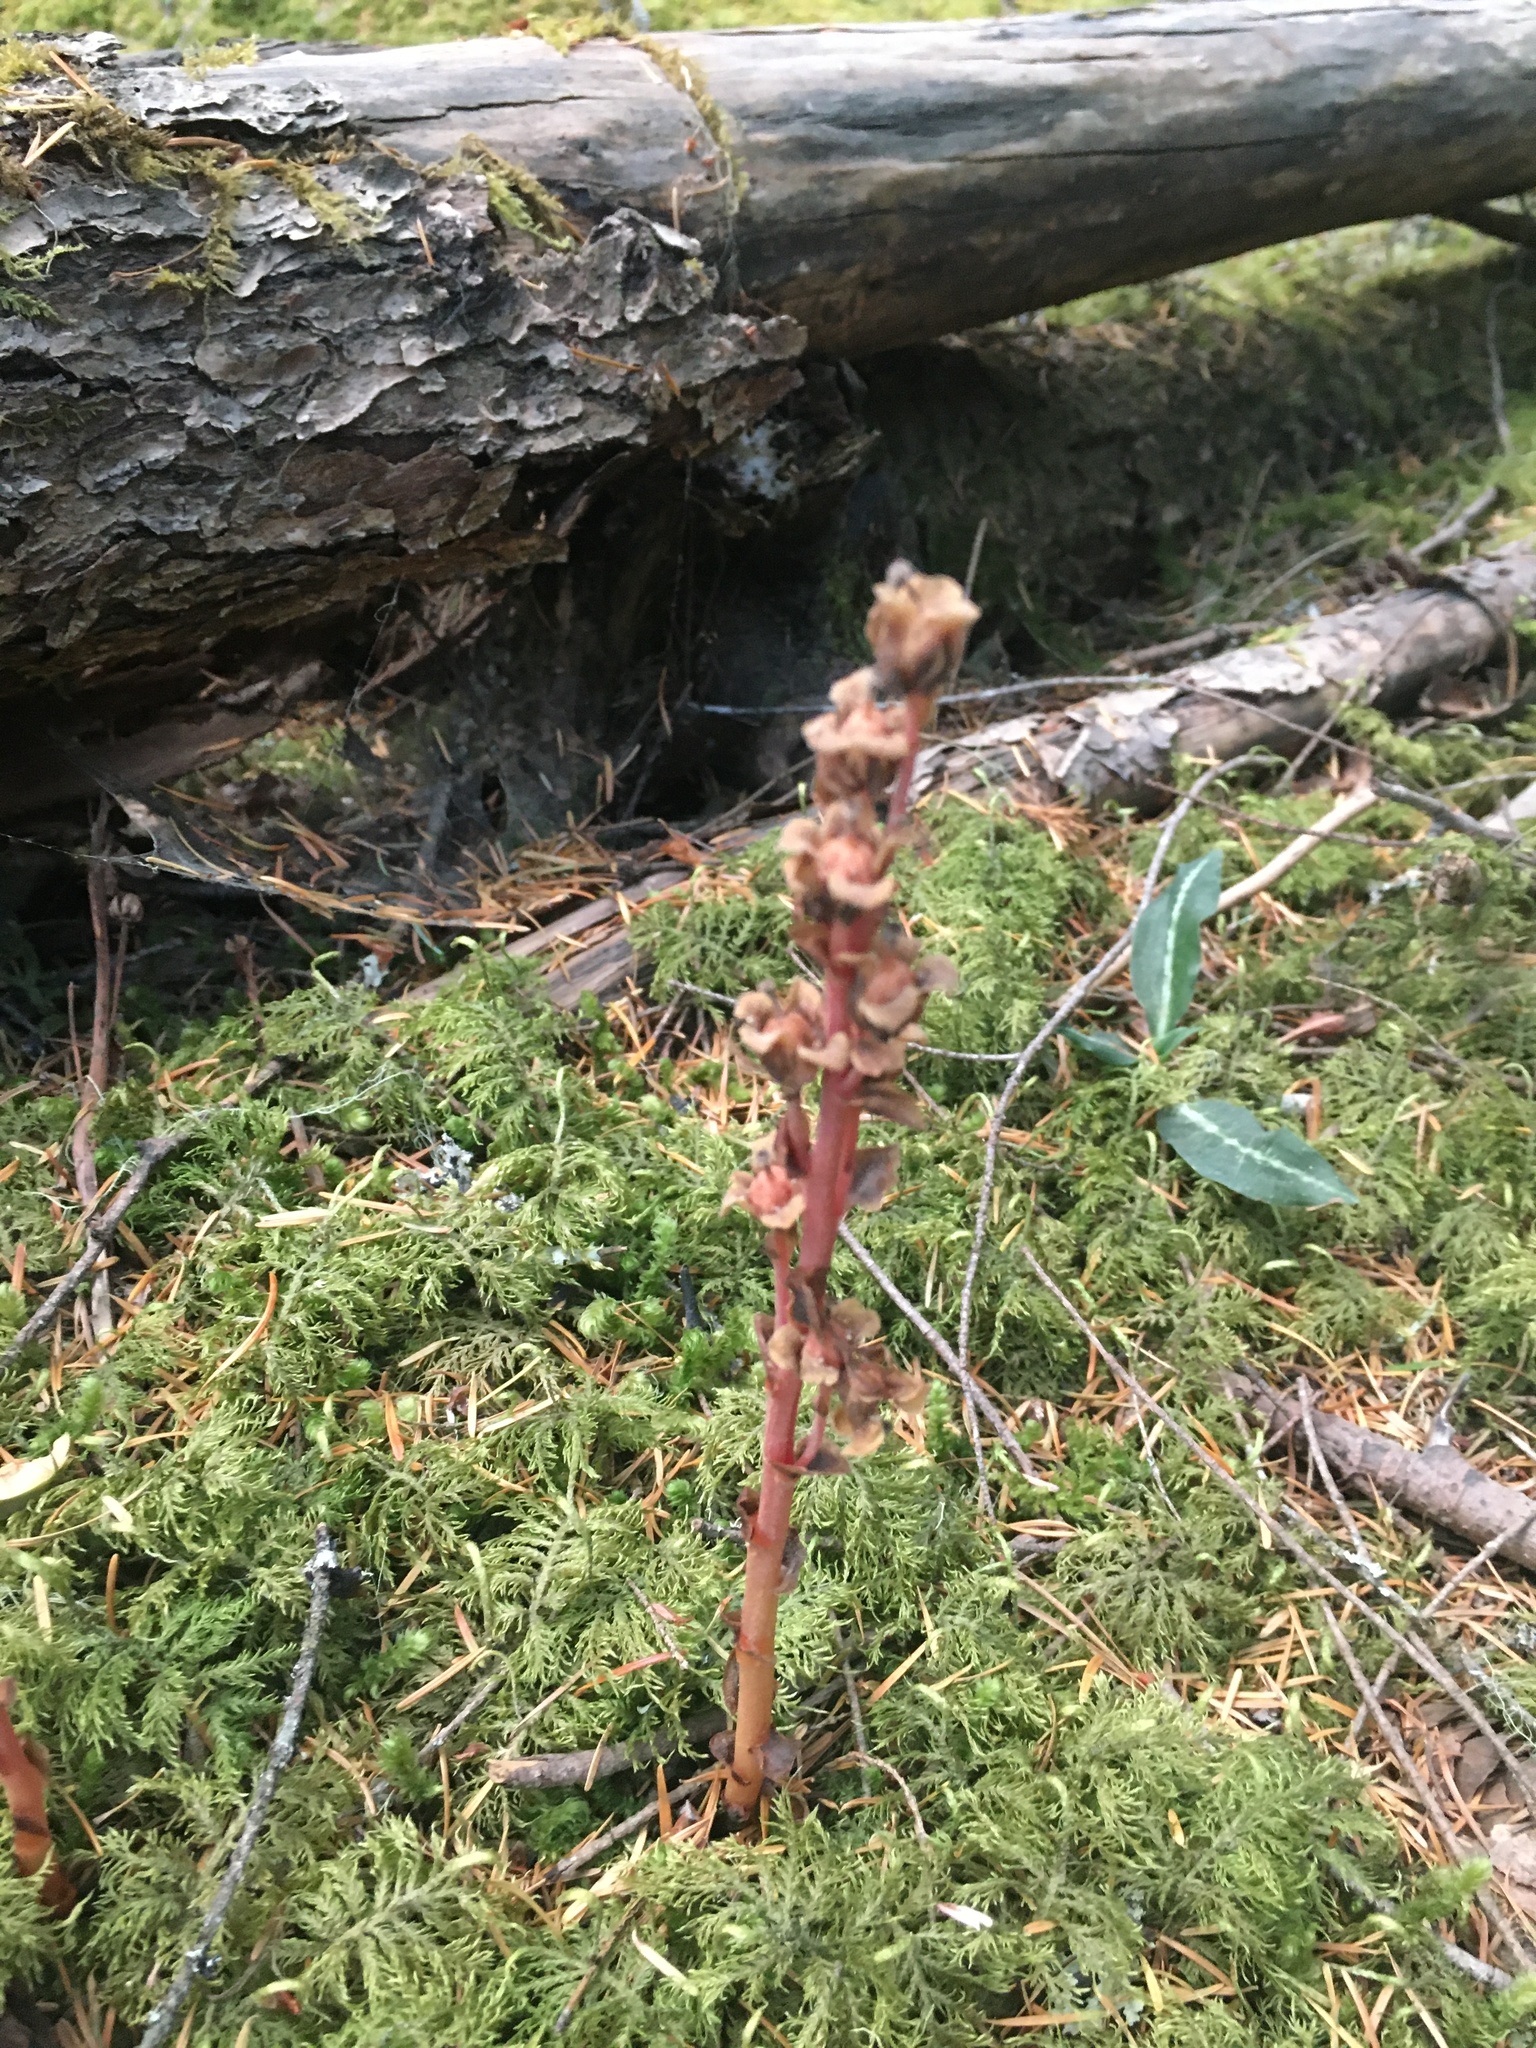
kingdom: Plantae
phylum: Tracheophyta
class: Magnoliopsida
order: Ericales
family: Ericaceae
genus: Hypopitys
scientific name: Hypopitys monotropa
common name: Yellow bird's-nest
